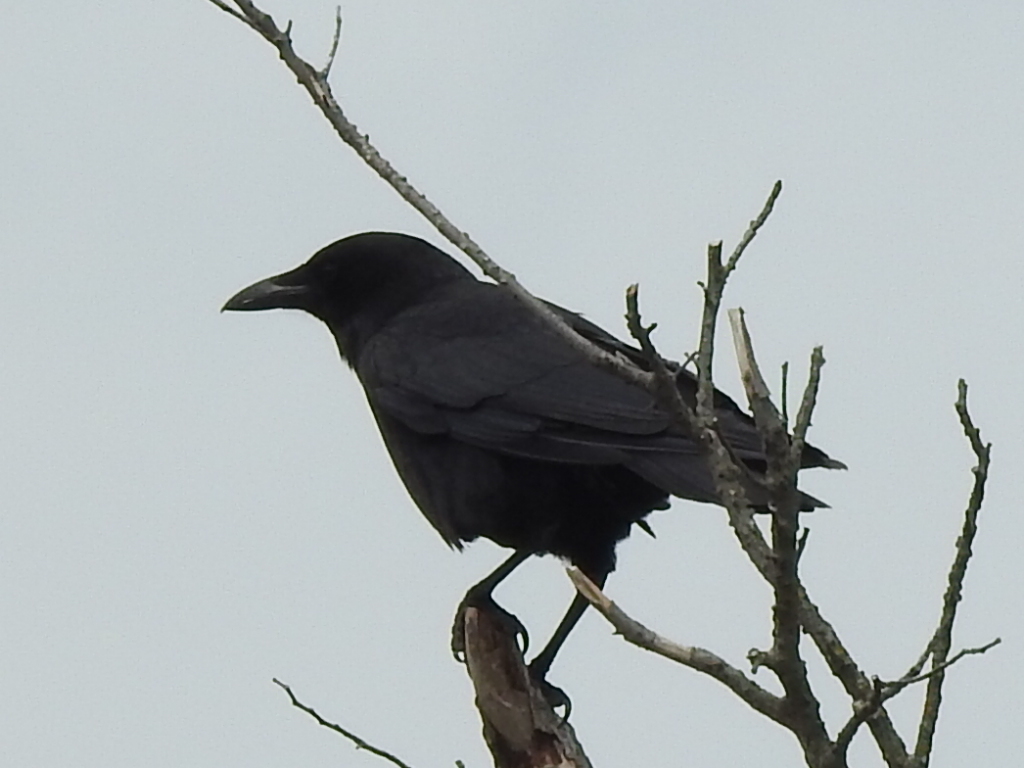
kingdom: Animalia
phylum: Chordata
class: Aves
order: Passeriformes
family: Corvidae
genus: Corvus
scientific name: Corvus brachyrhynchos
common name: American crow
